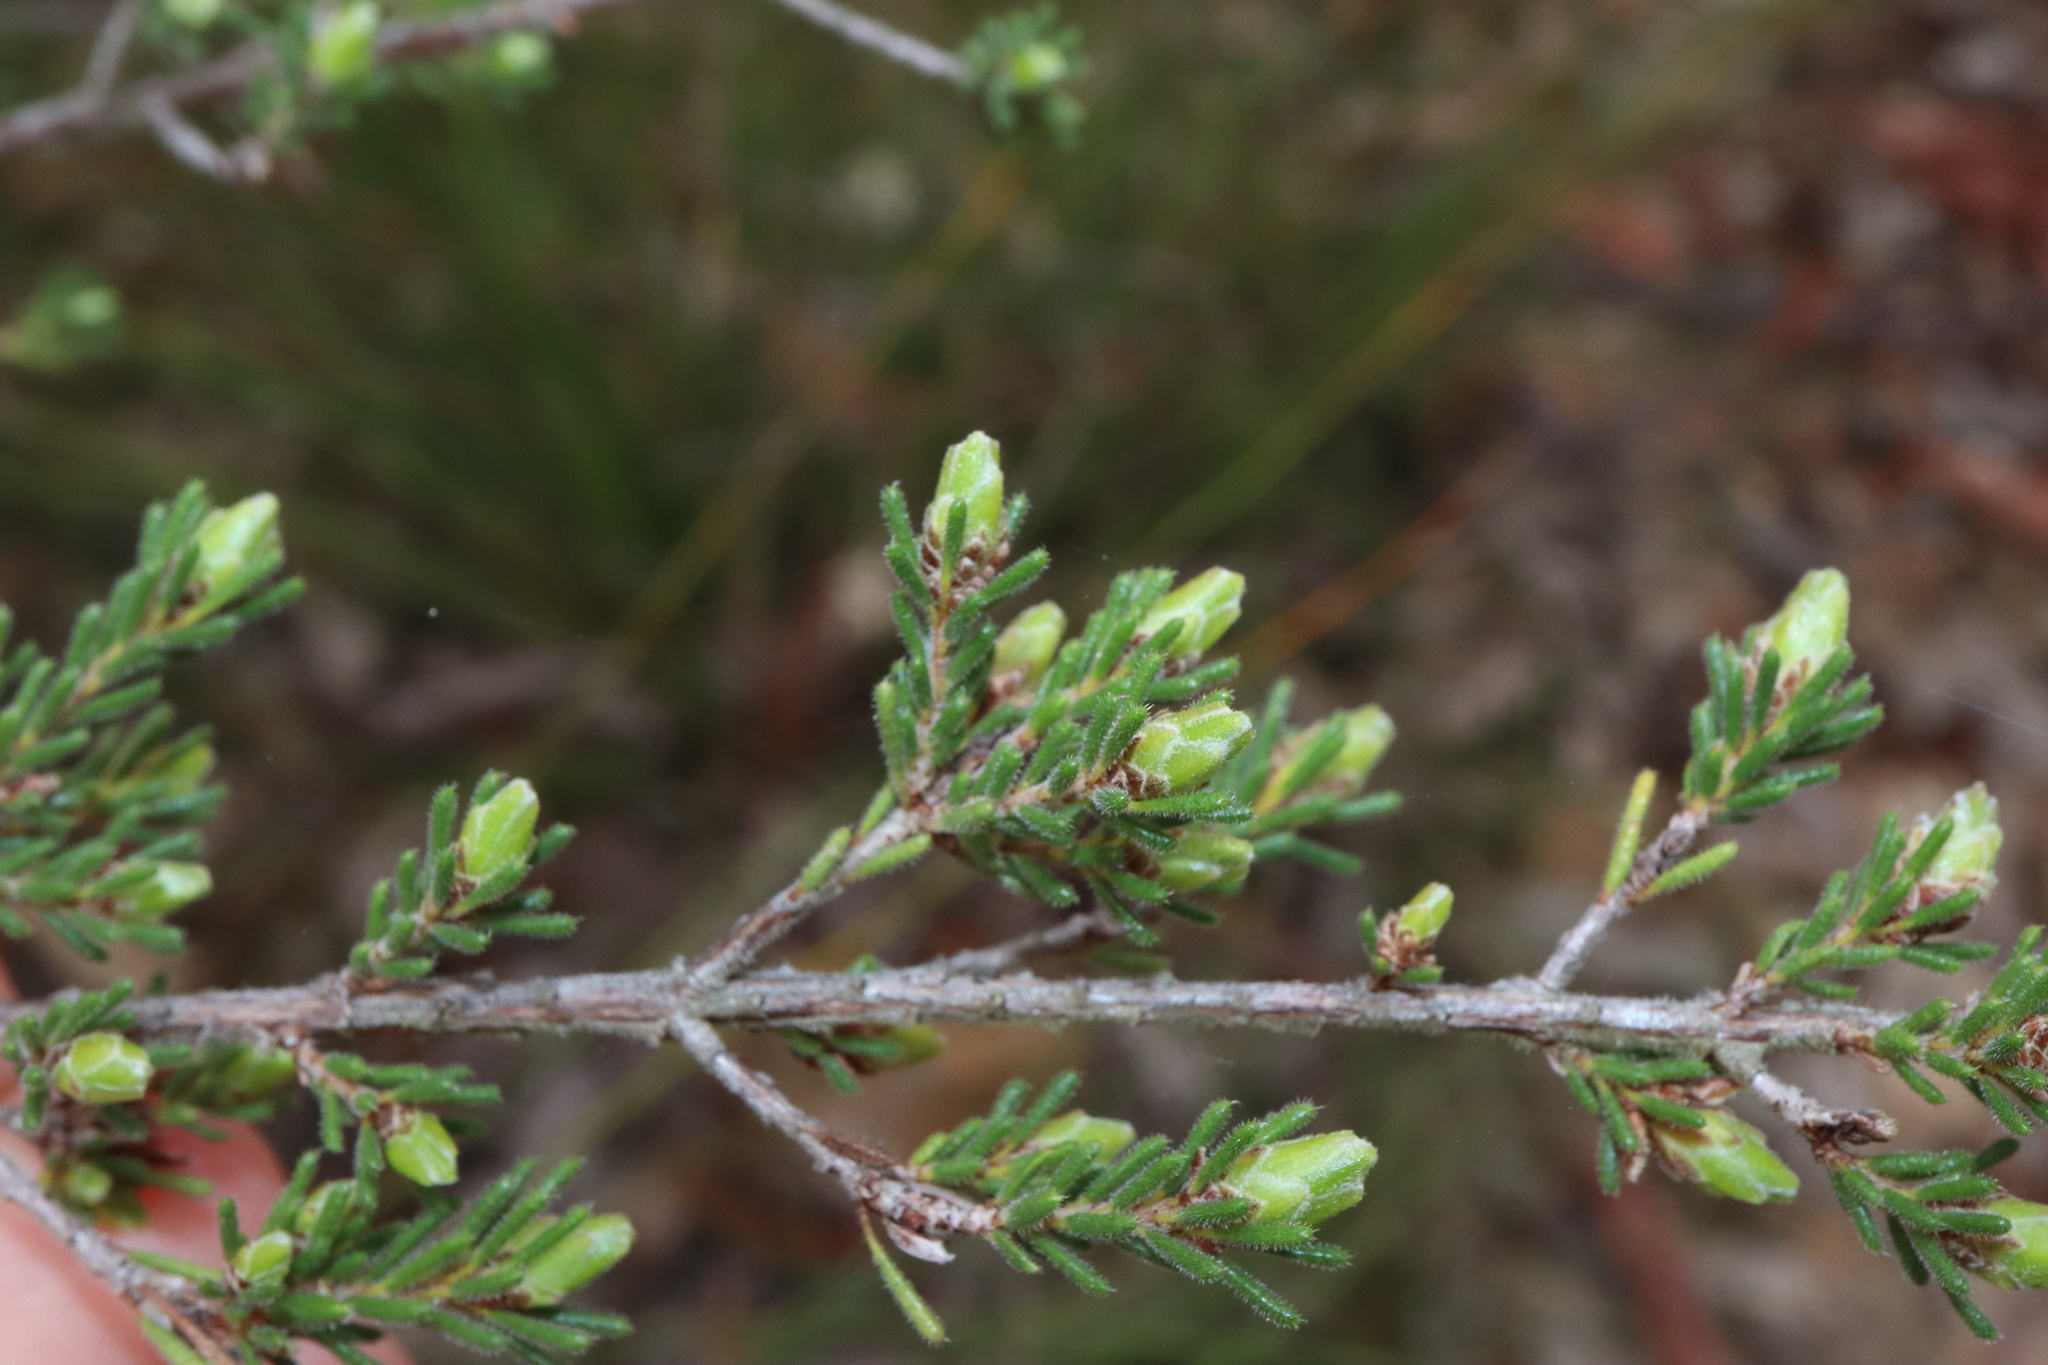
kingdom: Plantae
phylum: Tracheophyta
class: Magnoliopsida
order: Myrtales
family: Myrtaceae
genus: Calytrix
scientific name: Calytrix tetragona
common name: Common fringe myrtle
